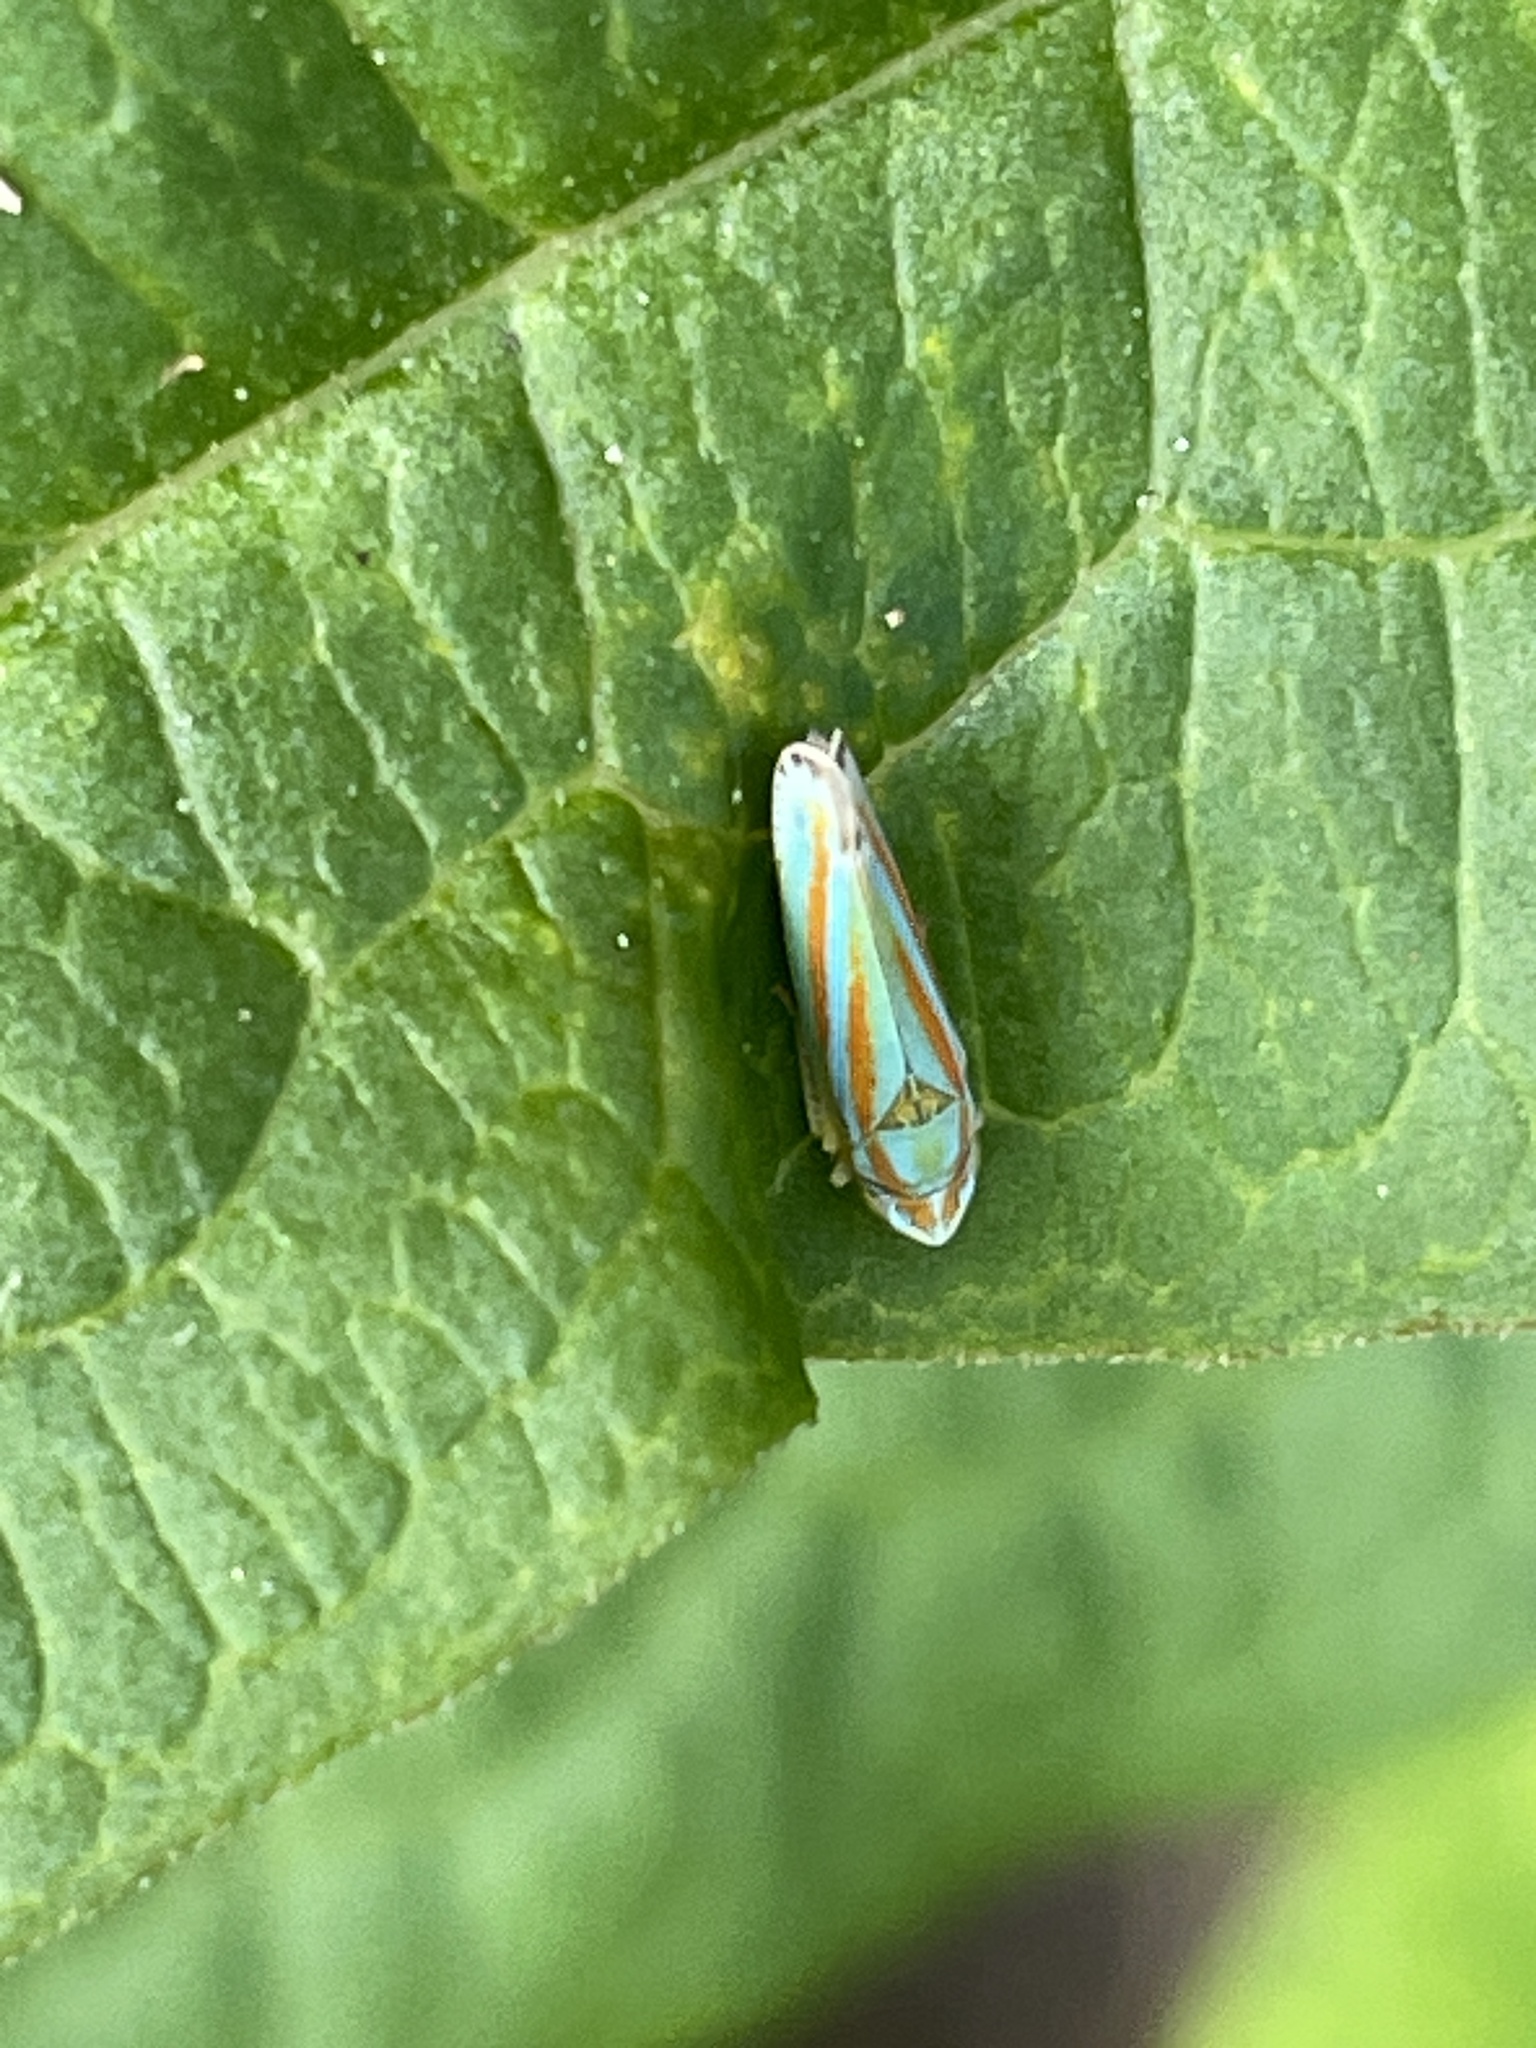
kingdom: Animalia
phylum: Arthropoda
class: Insecta
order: Hemiptera
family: Cicadellidae
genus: Graphocephala
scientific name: Graphocephala versuta
